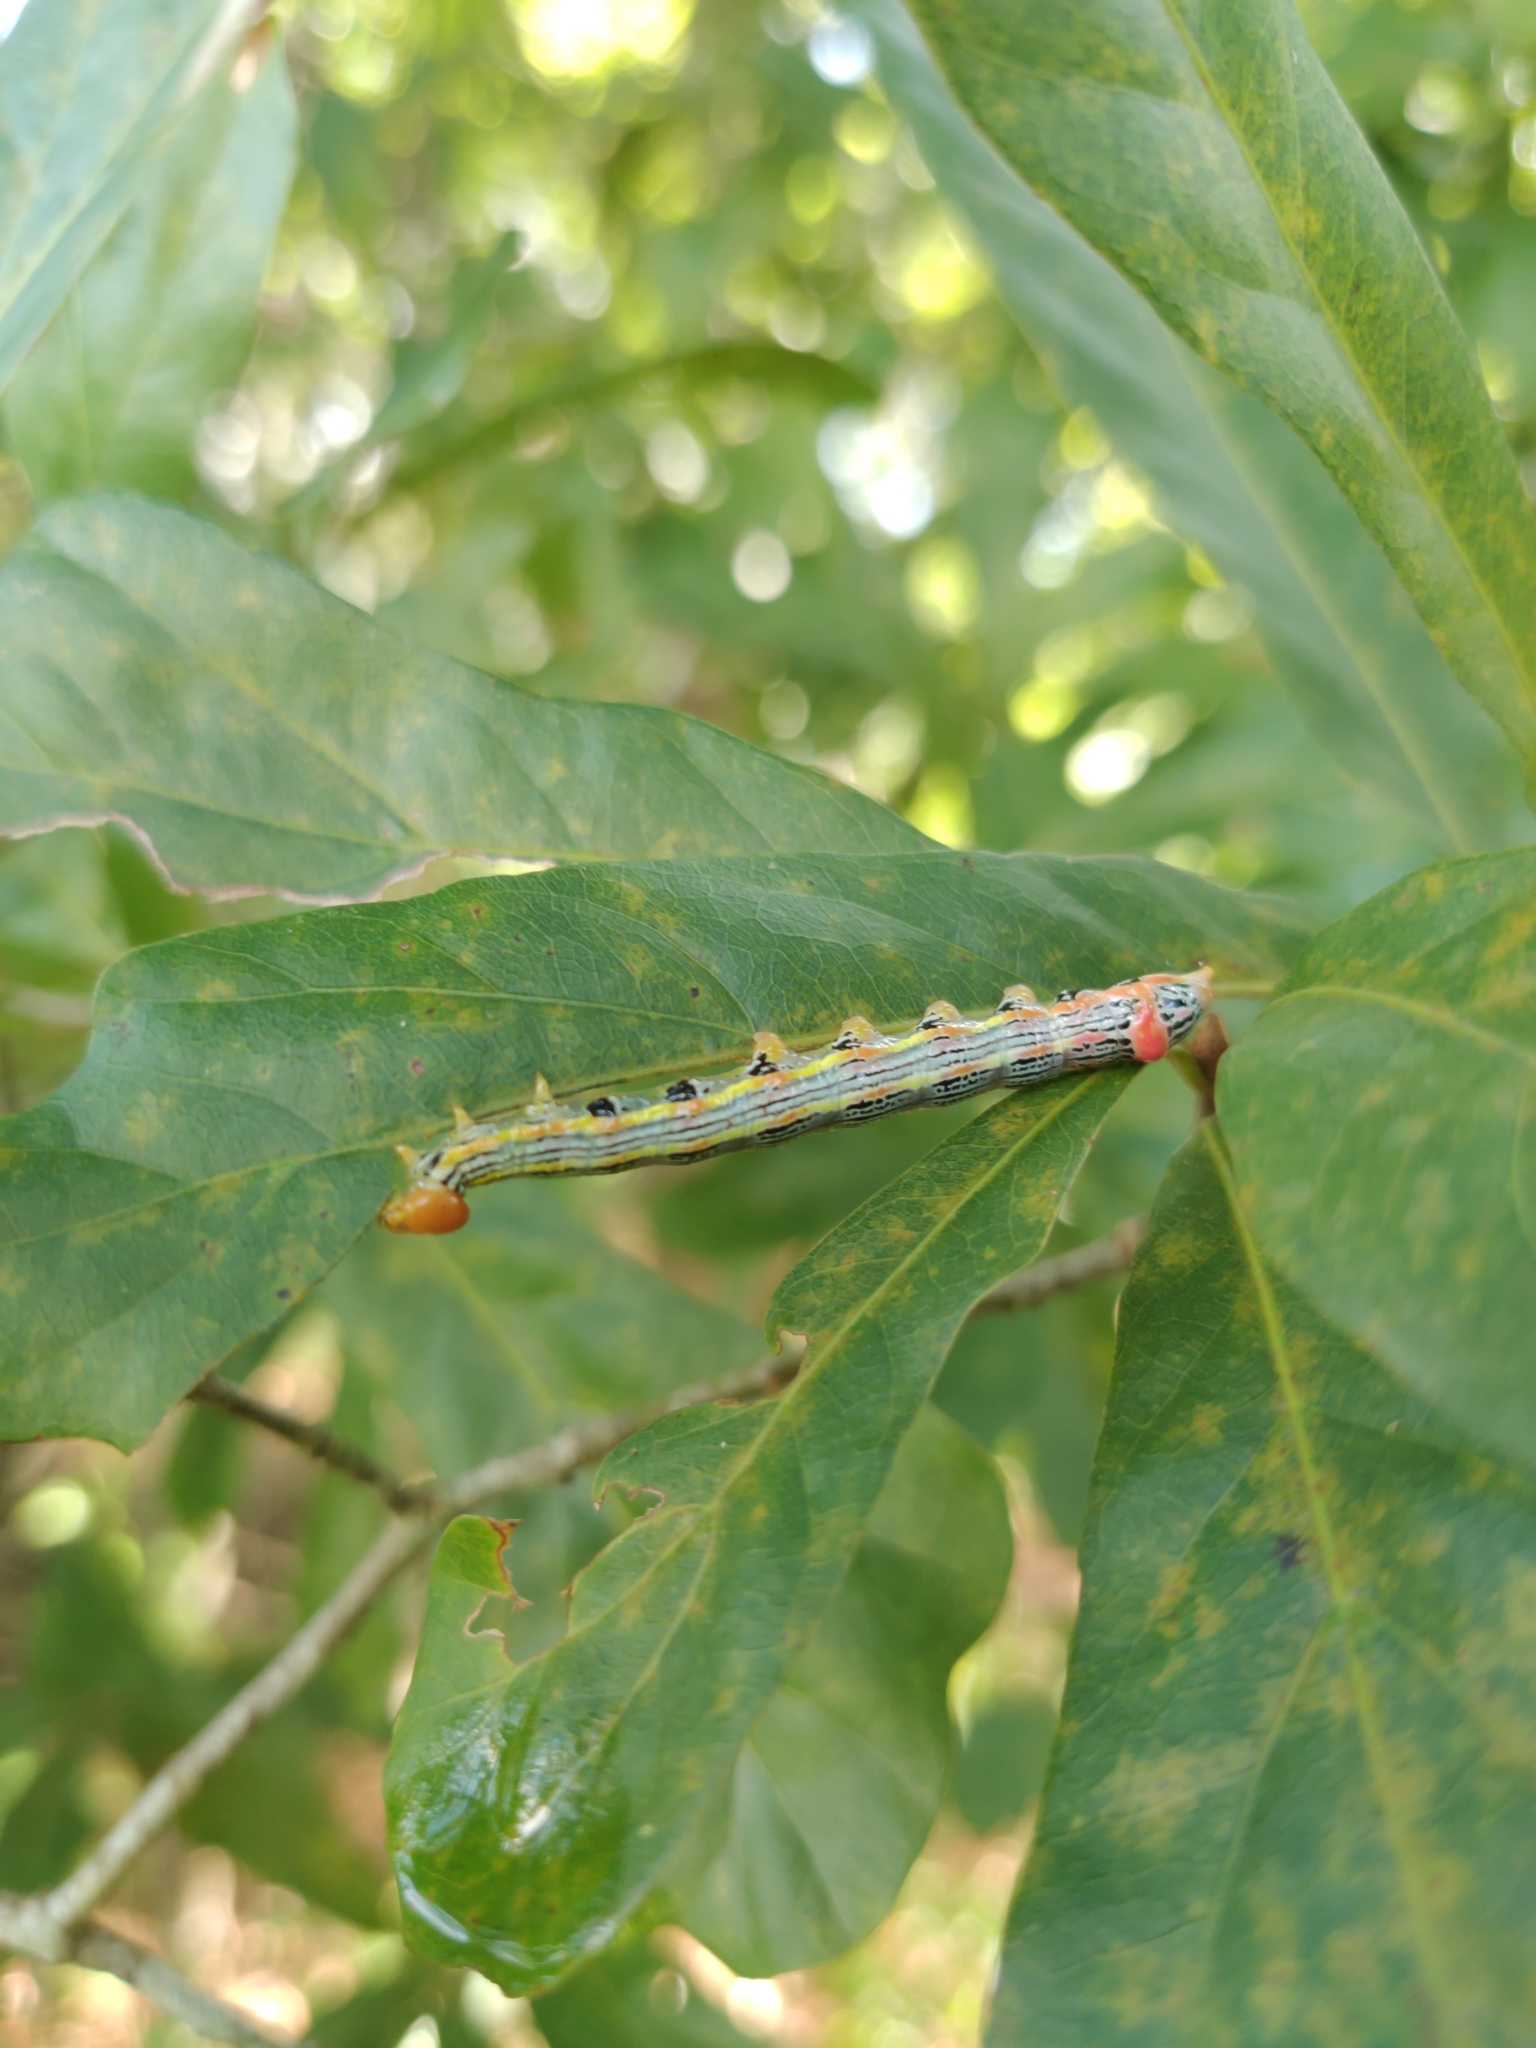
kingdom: Animalia
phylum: Arthropoda
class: Insecta
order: Lepidoptera
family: Notodontidae
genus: Symmerista
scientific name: Symmerista albifrons
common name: White-headed prominent
